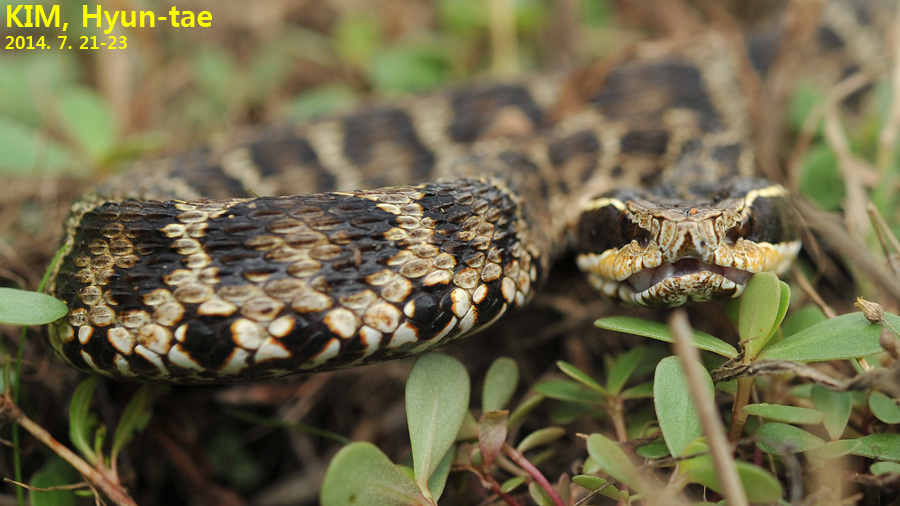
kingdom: Animalia
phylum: Chordata
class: Squamata
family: Viperidae
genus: Gloydius
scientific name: Gloydius brevicauda
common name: Short-tailed mamushi
